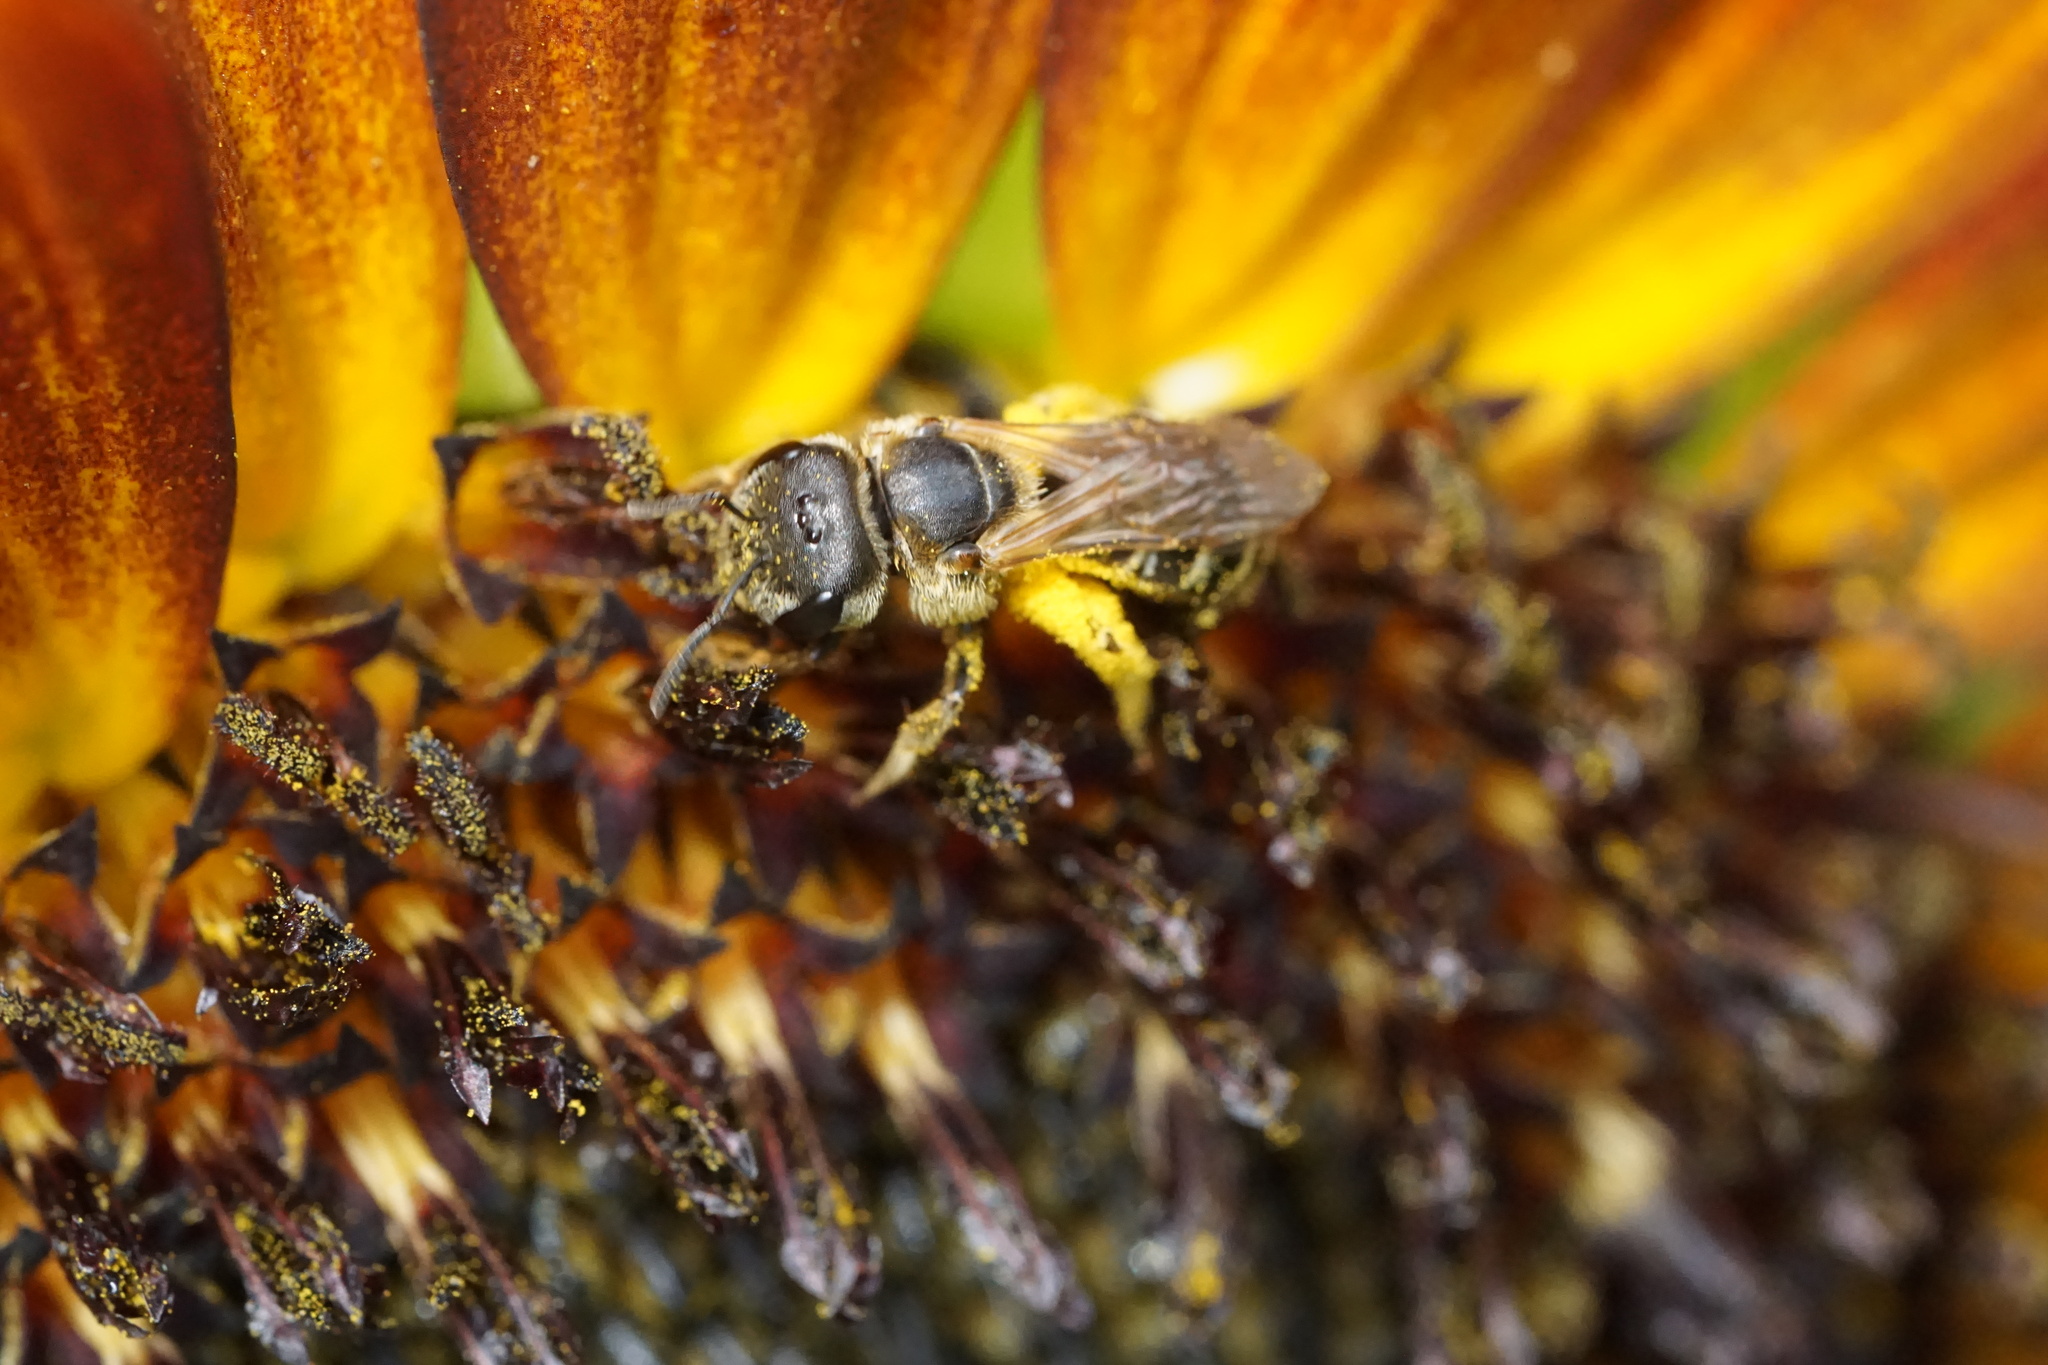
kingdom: Animalia
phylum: Arthropoda
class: Insecta
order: Hymenoptera
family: Halictidae
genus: Halictus
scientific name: Halictus ligatus
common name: Ligated furrow bee
